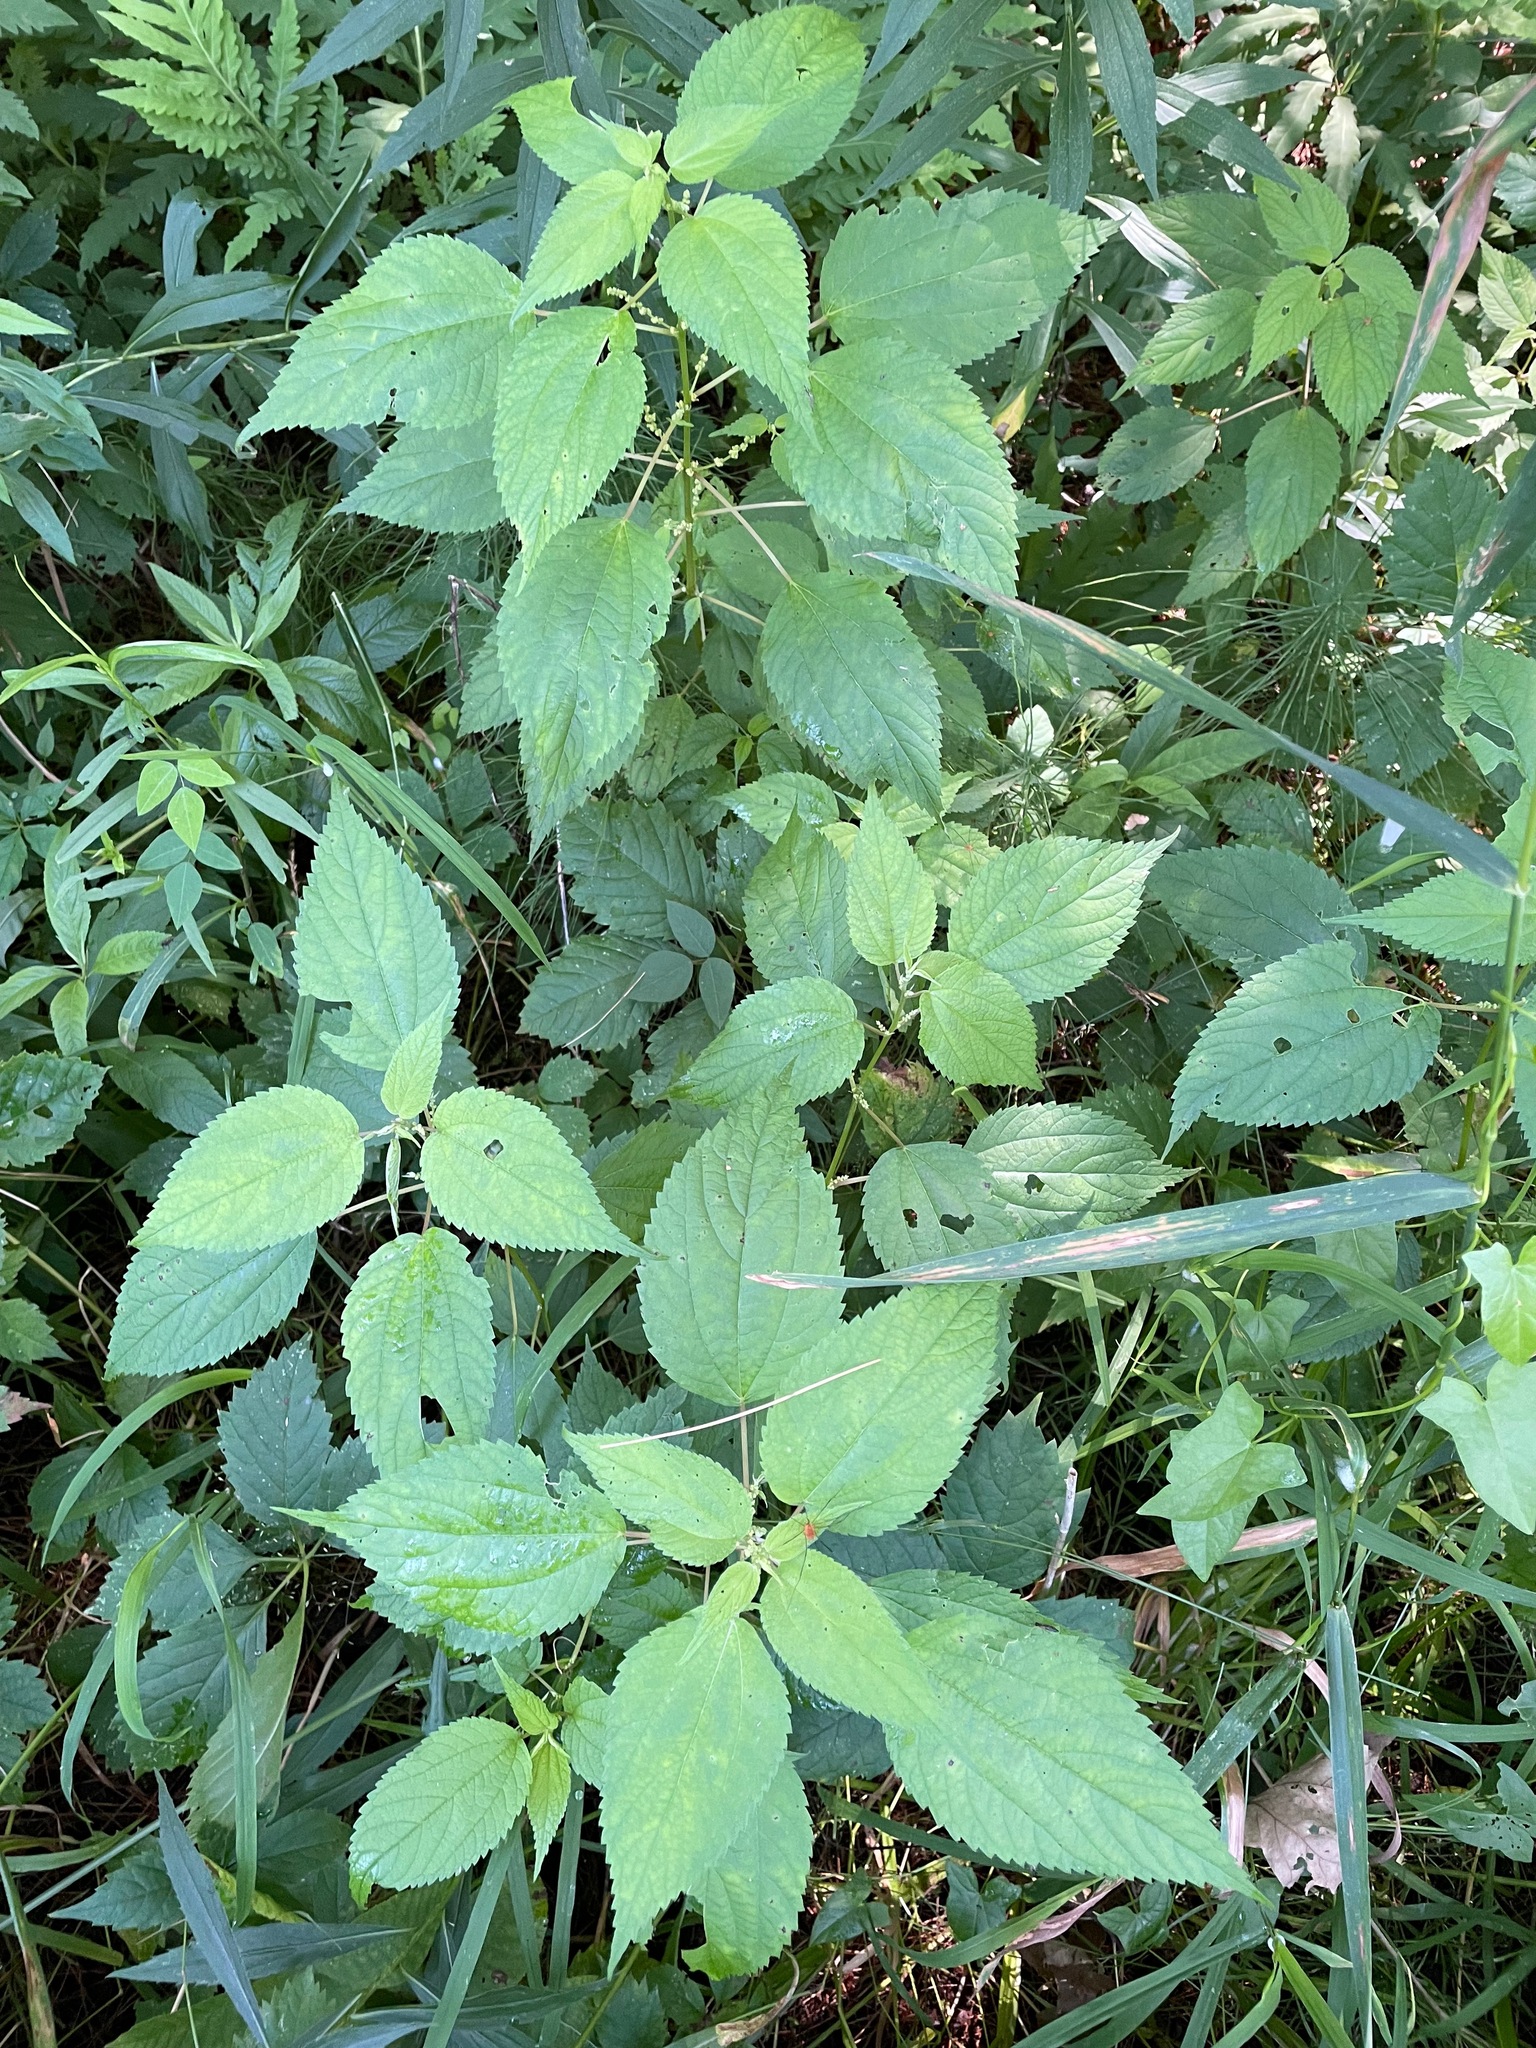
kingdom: Plantae
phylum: Tracheophyta
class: Magnoliopsida
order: Rosales
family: Urticaceae
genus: Boehmeria
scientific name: Boehmeria cylindrica
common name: Bog-hemp
